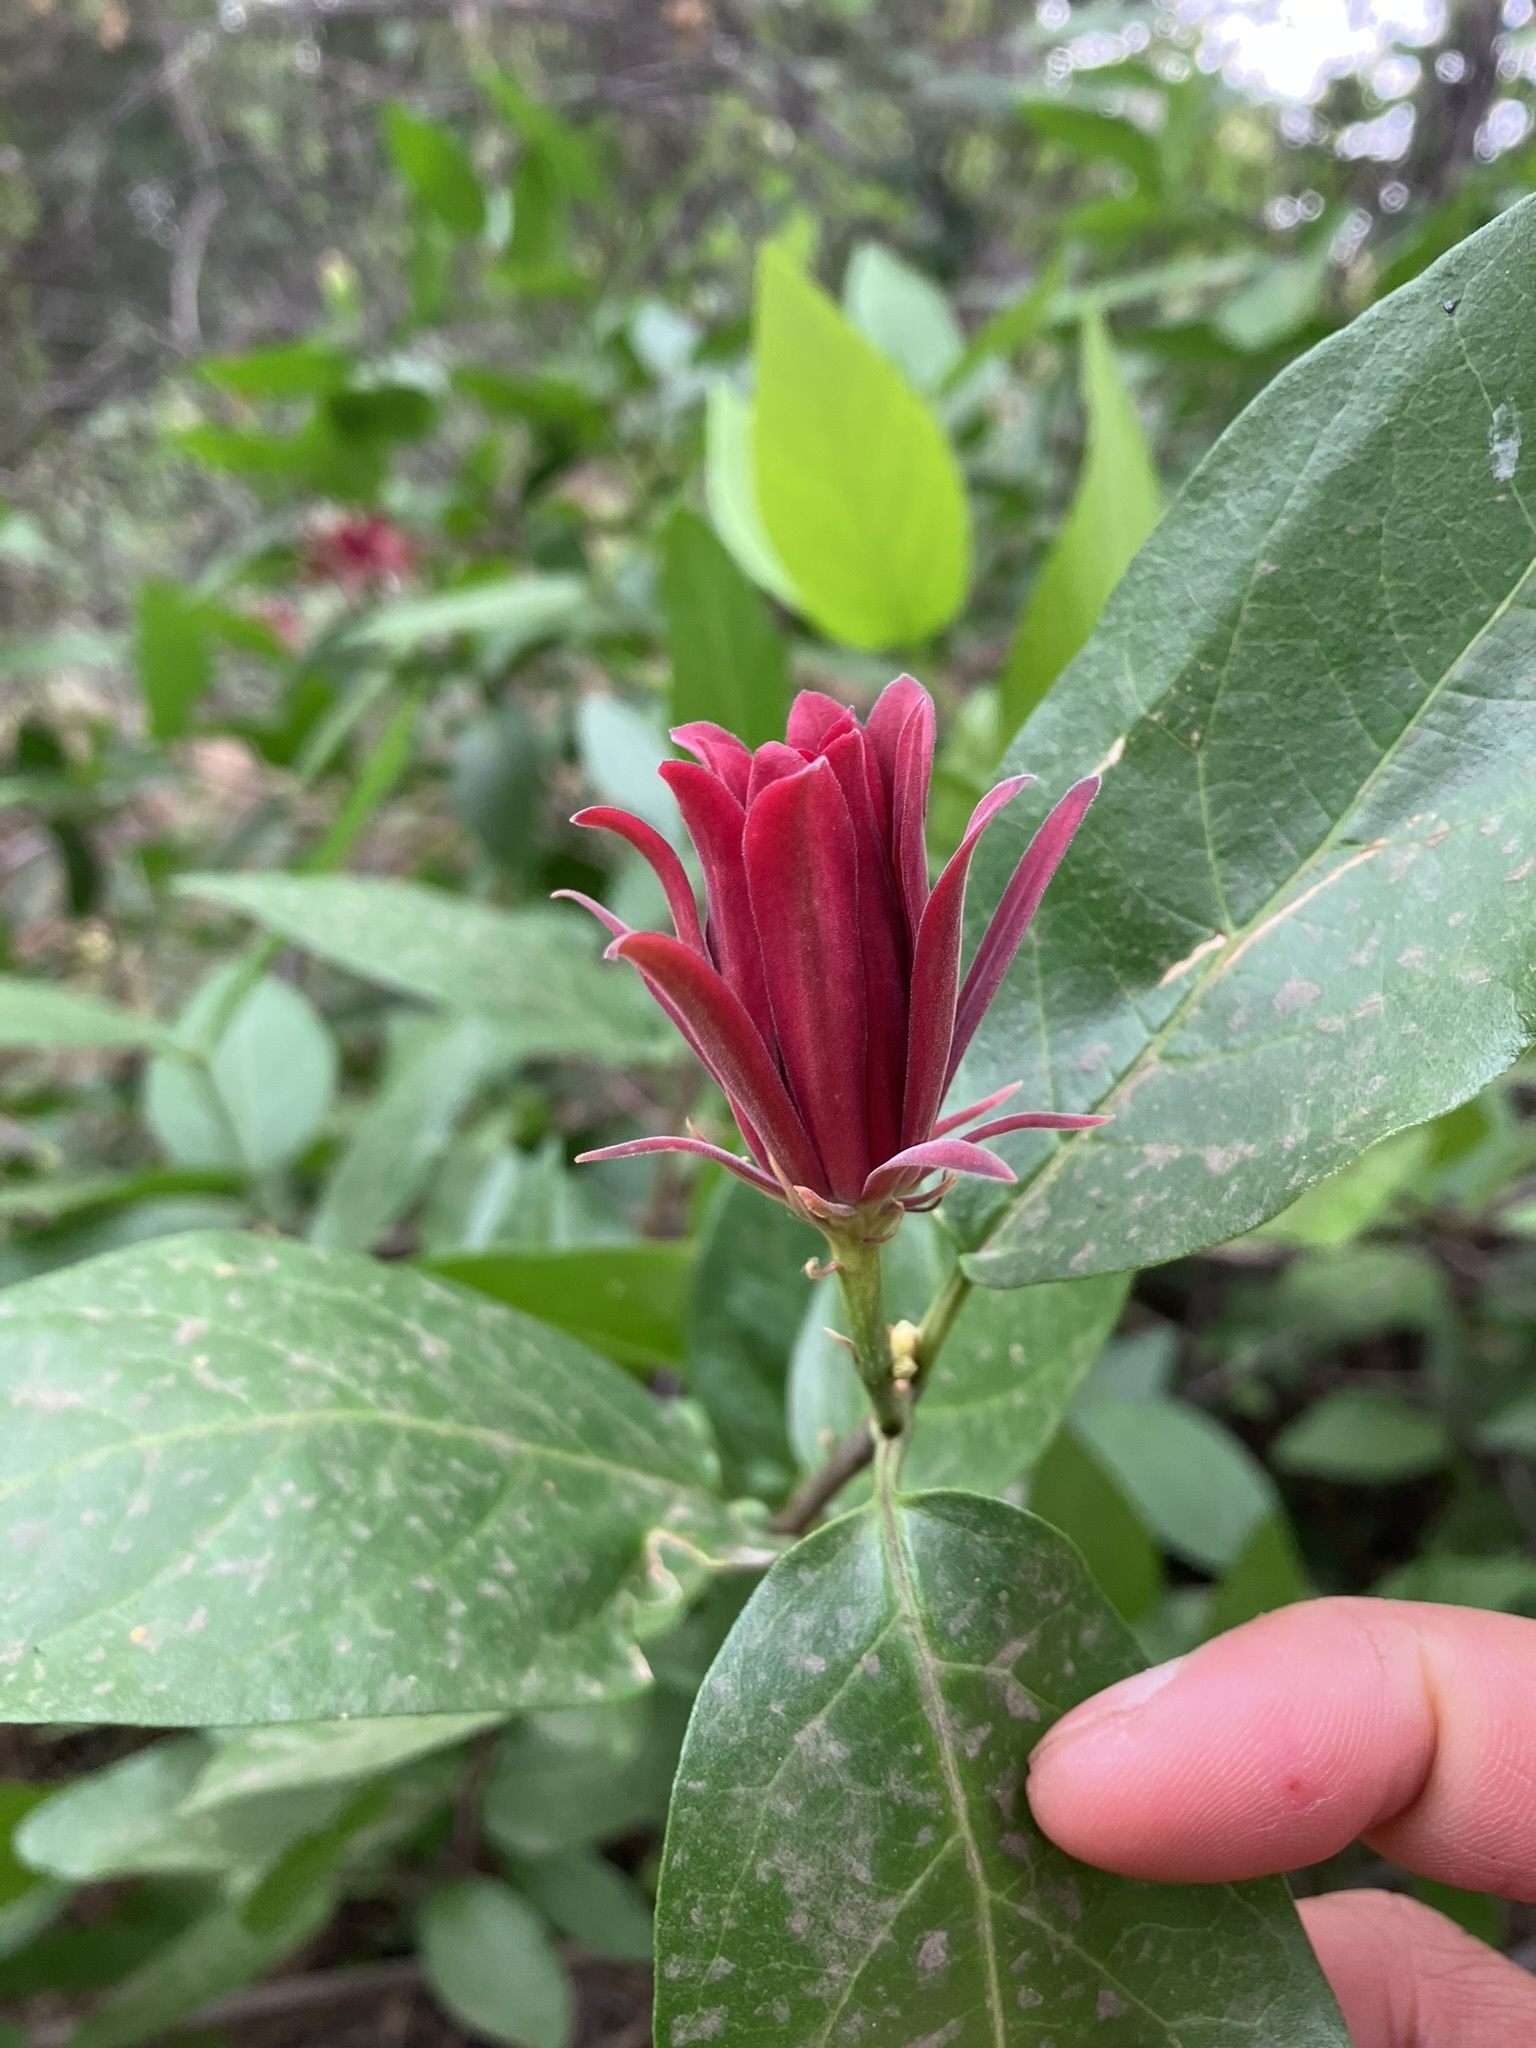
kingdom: Plantae
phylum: Tracheophyta
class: Magnoliopsida
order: Laurales
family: Calycanthaceae
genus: Calycanthus
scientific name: Calycanthus occidentalis
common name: California spicebush
